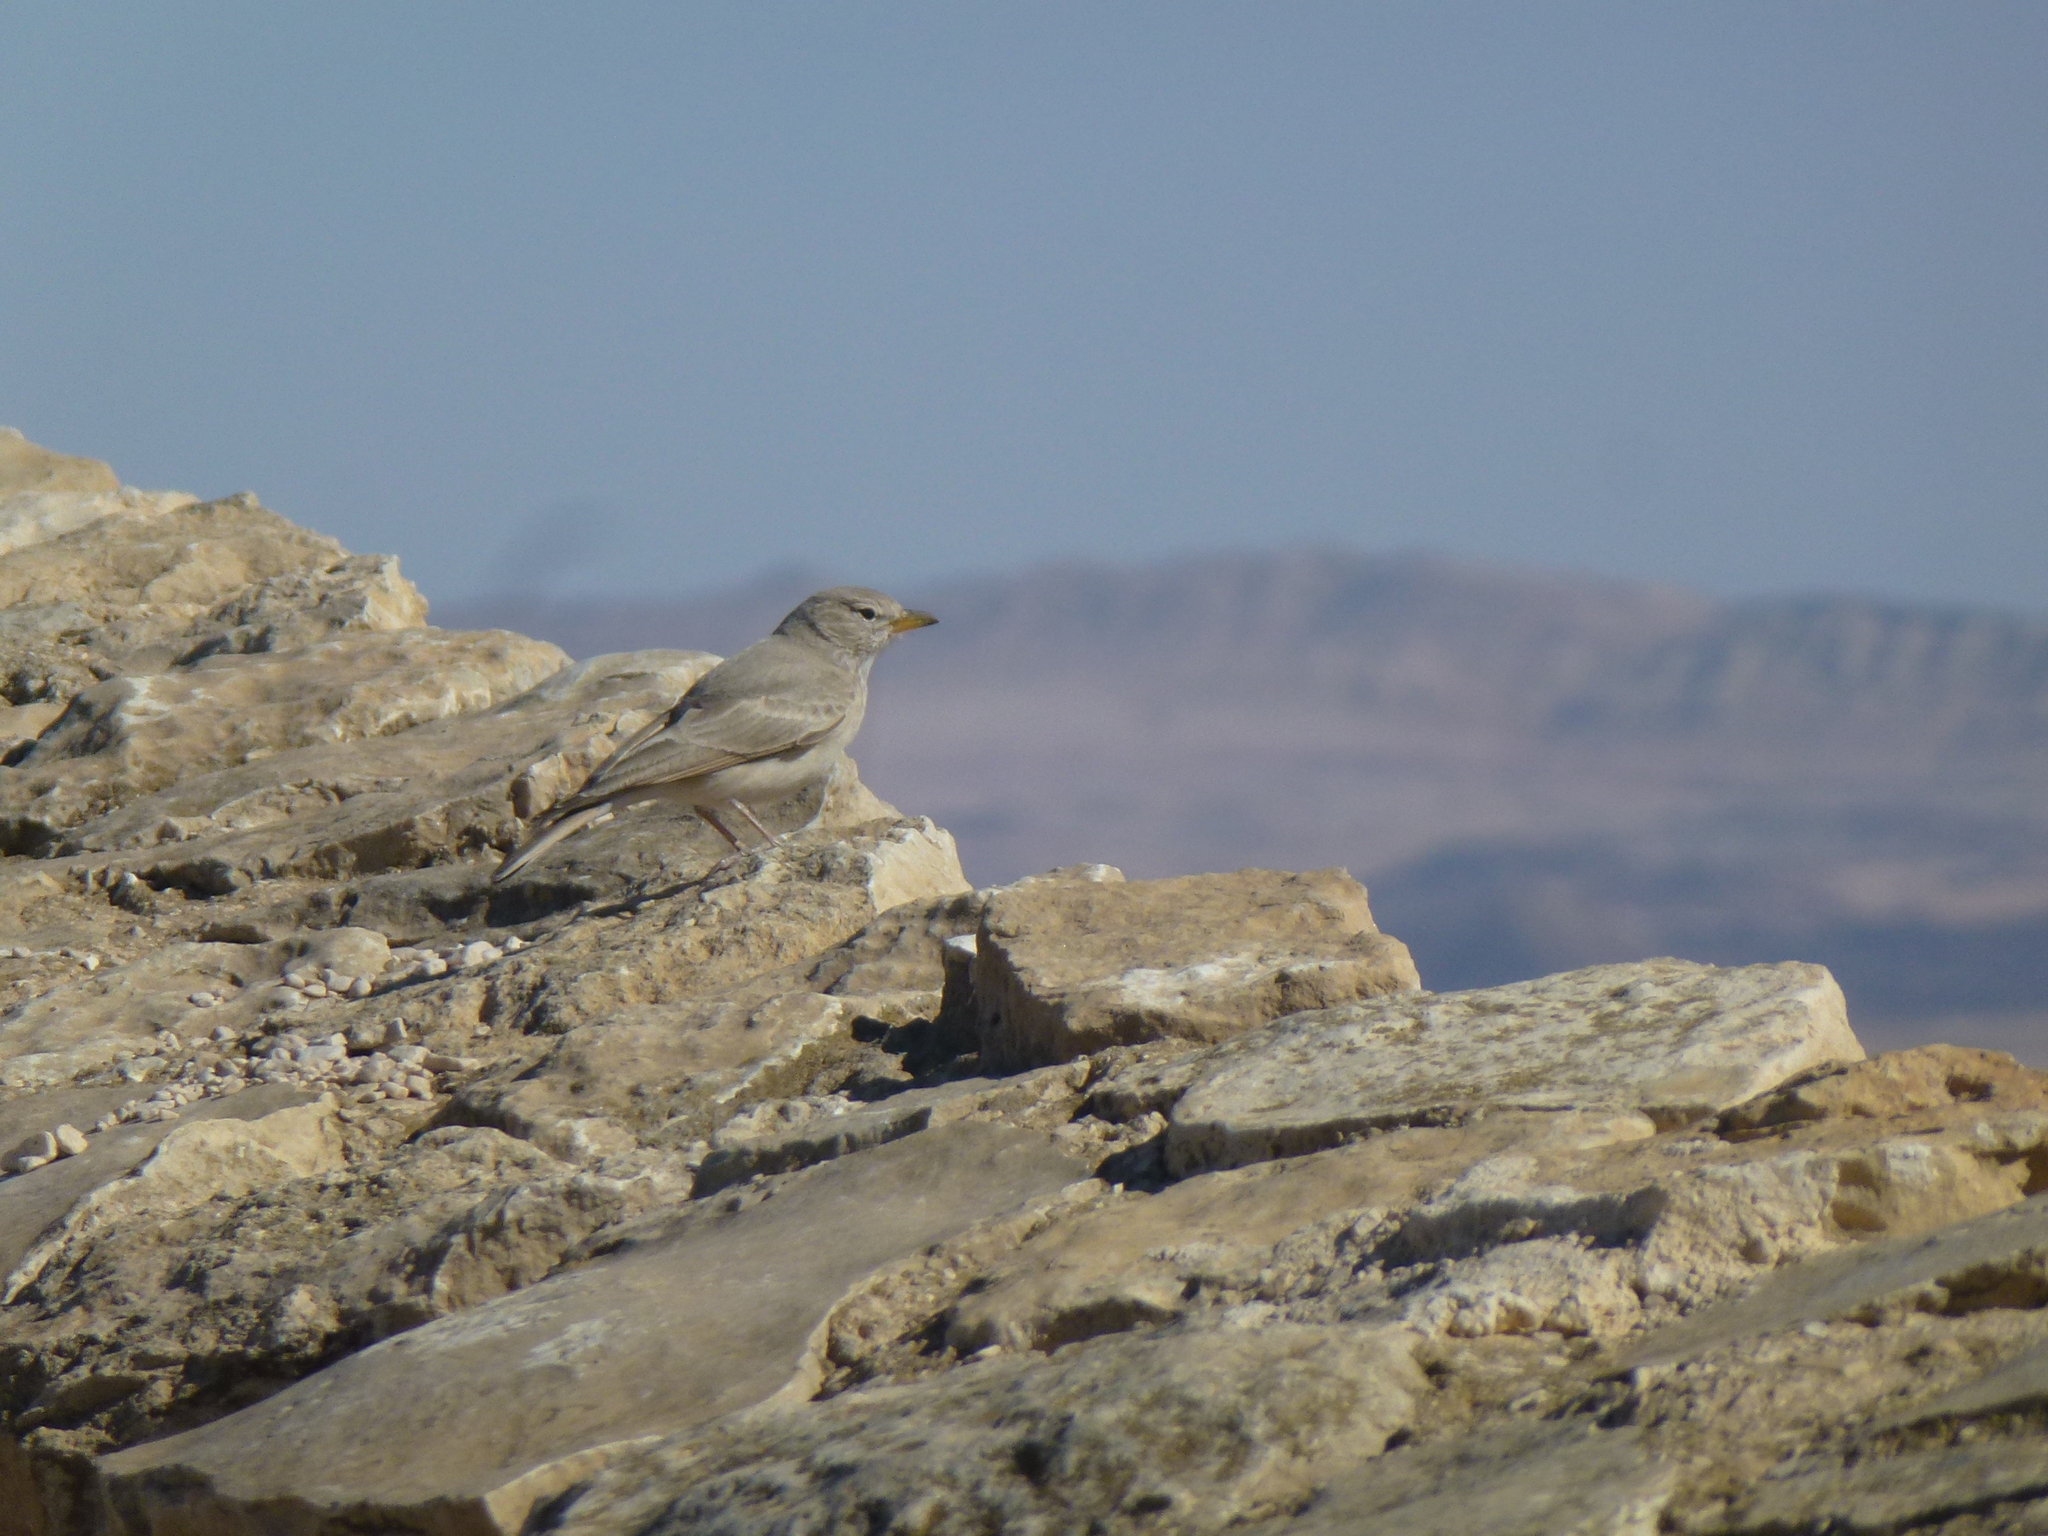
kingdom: Animalia
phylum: Chordata
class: Aves
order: Passeriformes
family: Alaudidae
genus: Ammomanes
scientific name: Ammomanes deserti
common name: Desert lark
